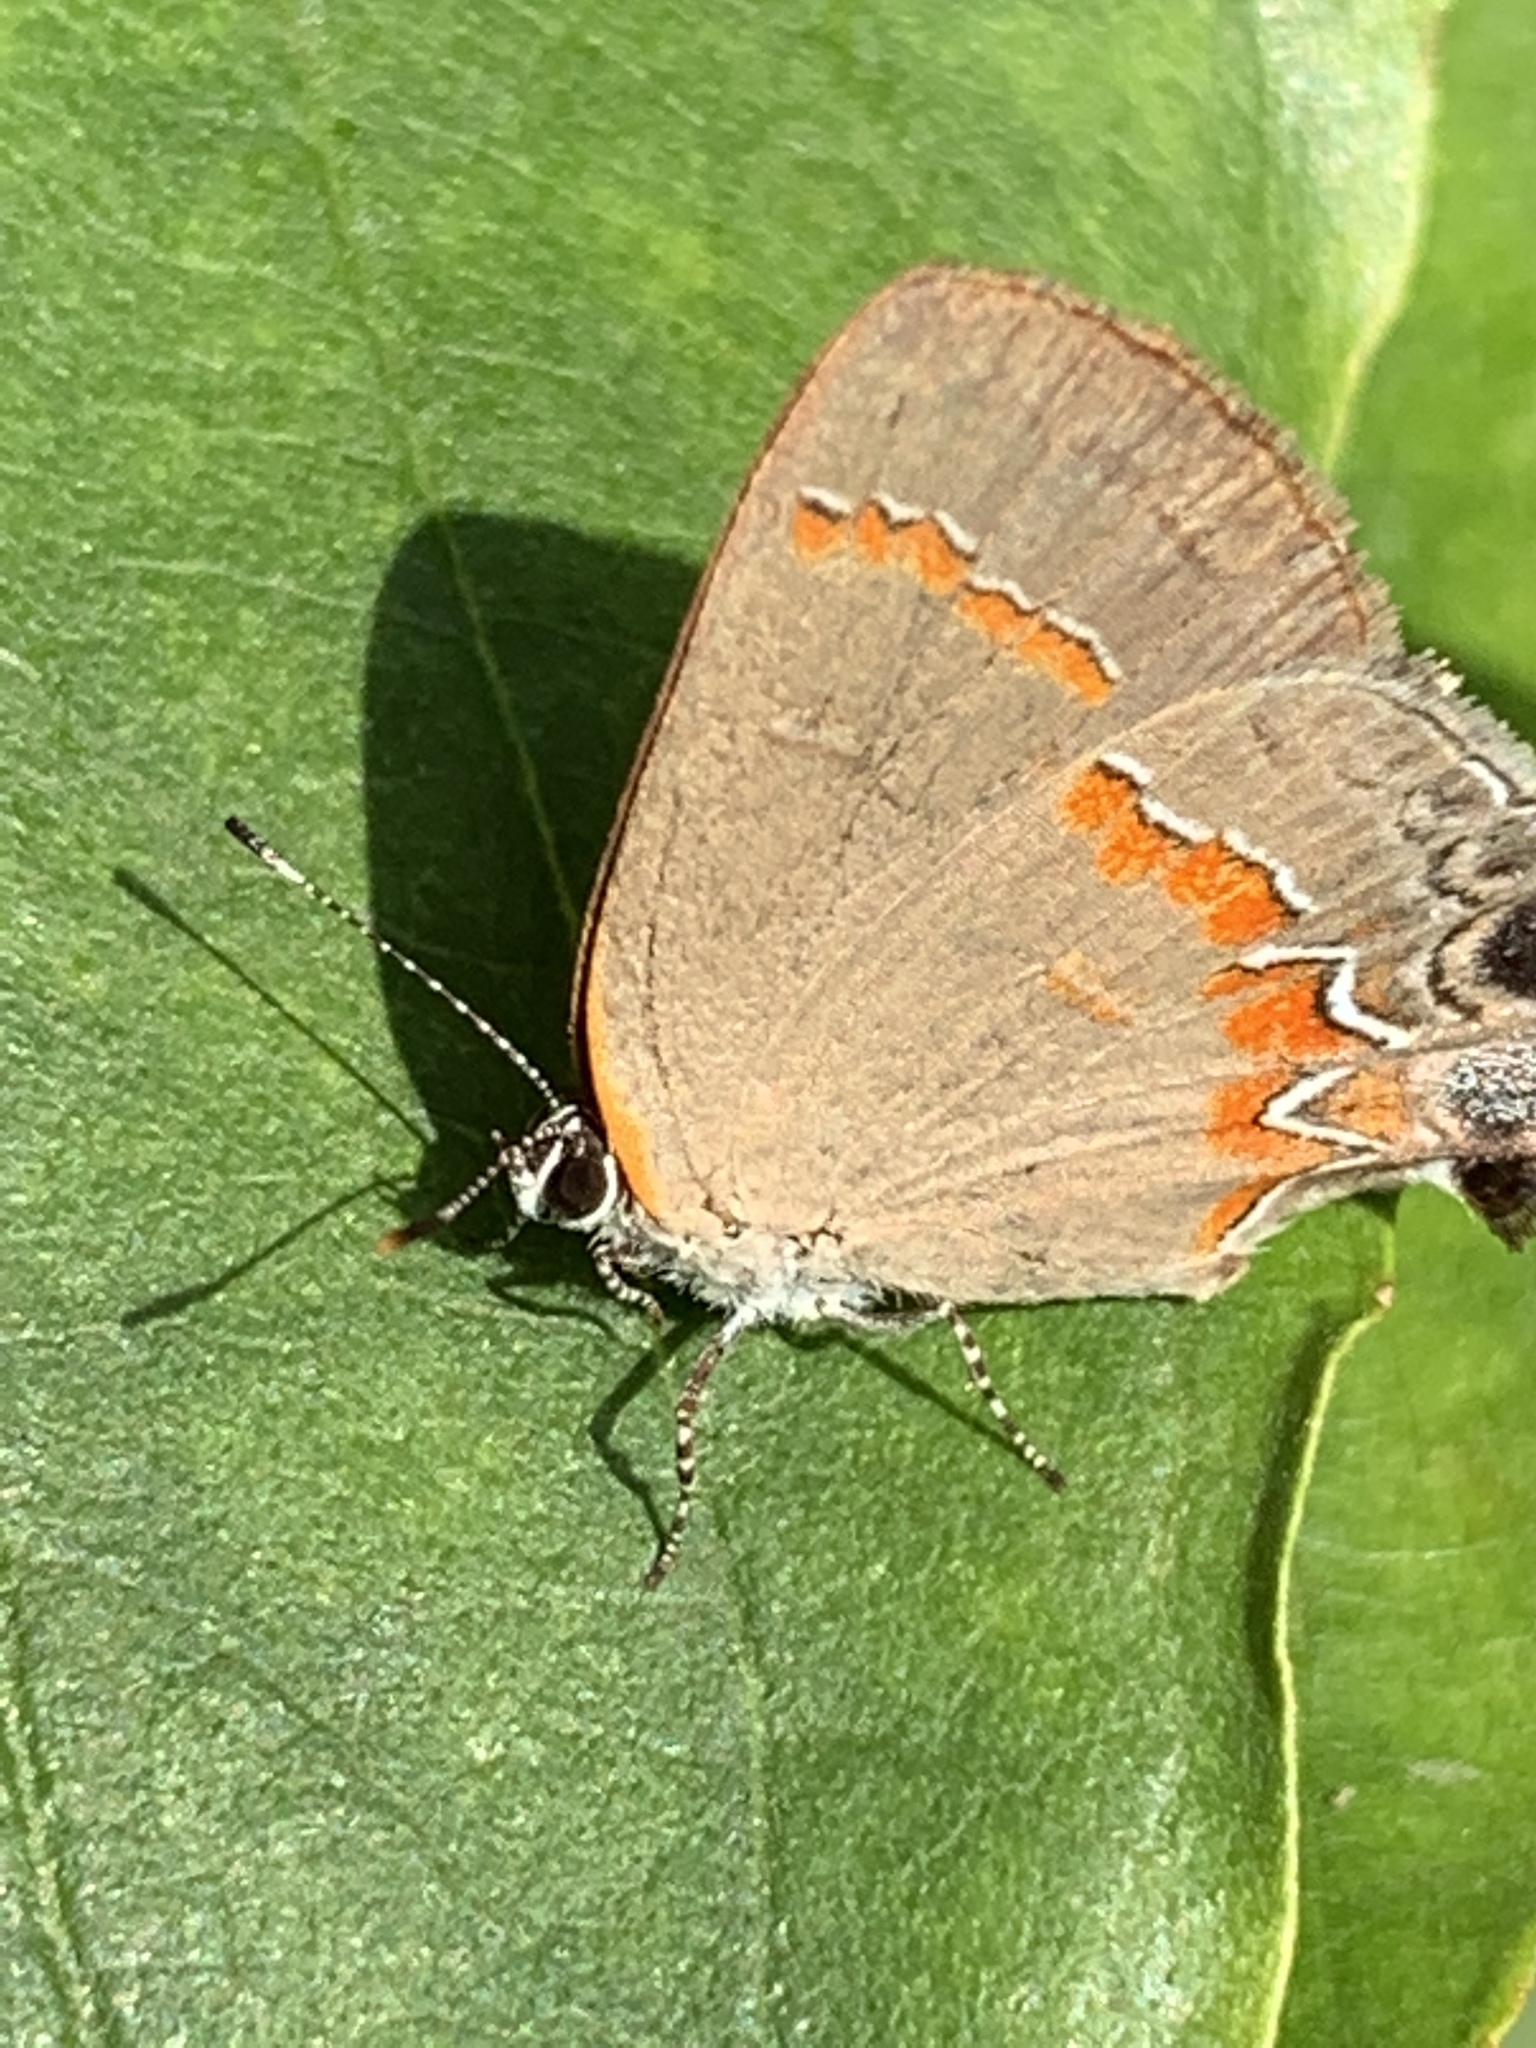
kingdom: Animalia
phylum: Arthropoda
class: Insecta
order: Lepidoptera
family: Lycaenidae
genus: Calycopis
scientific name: Calycopis cecrops
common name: Red-banded hairstreak
